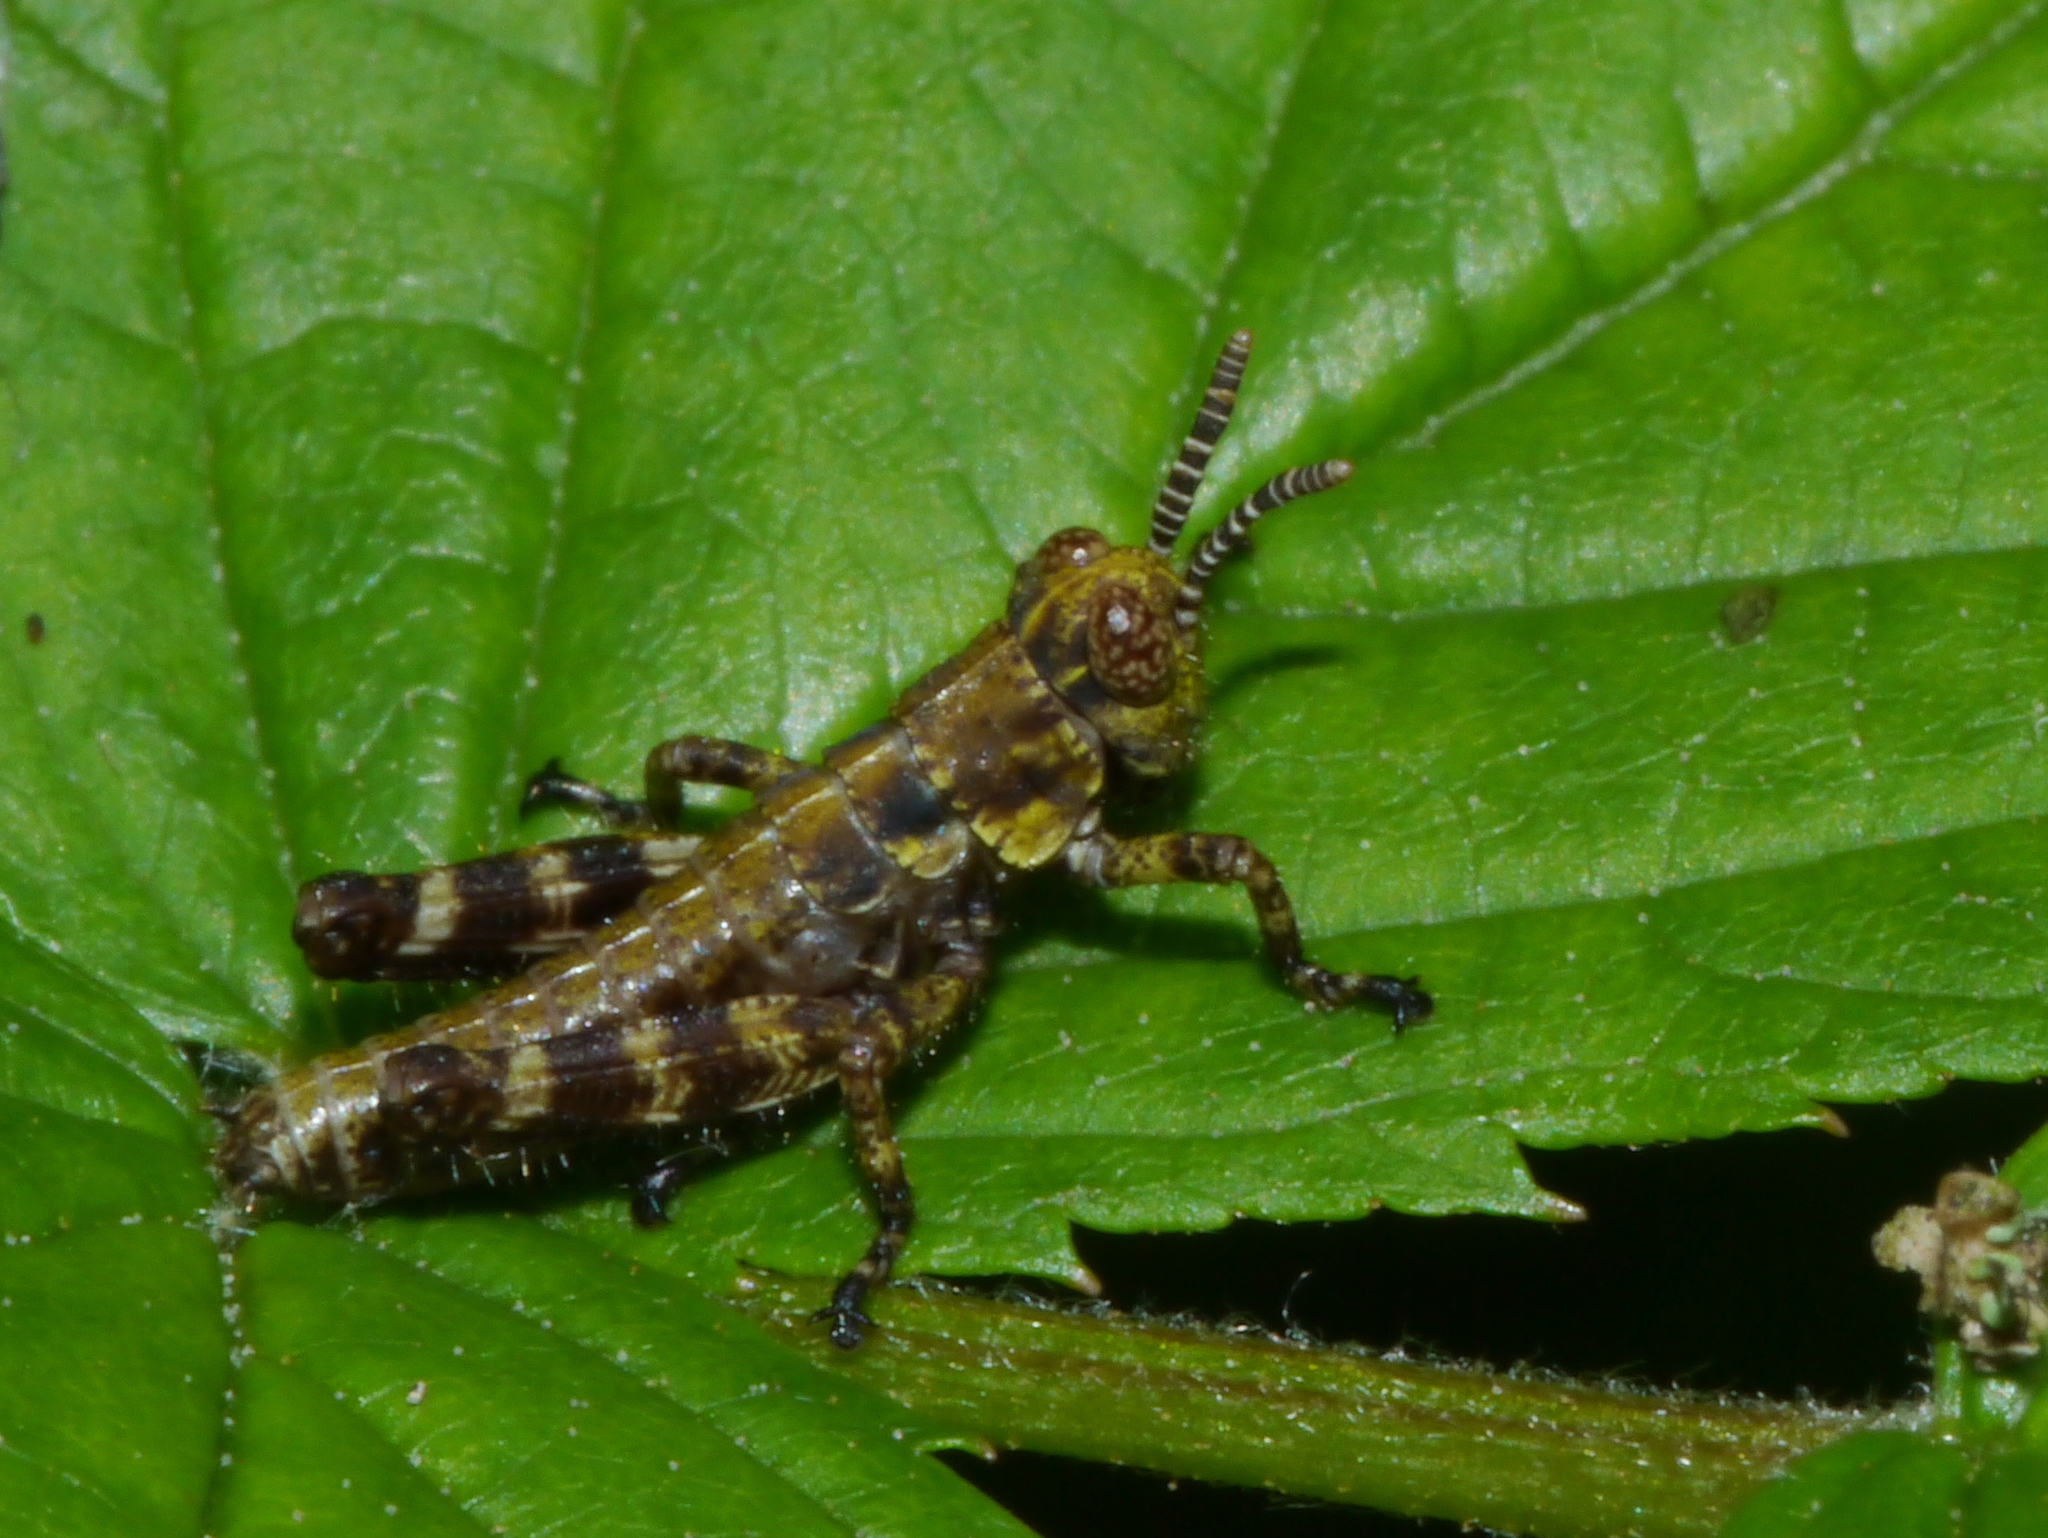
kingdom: Animalia
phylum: Arthropoda
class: Insecta
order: Orthoptera
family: Acrididae
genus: Booneacris
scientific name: Booneacris glacialis
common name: Wingless mountain grasshopper
